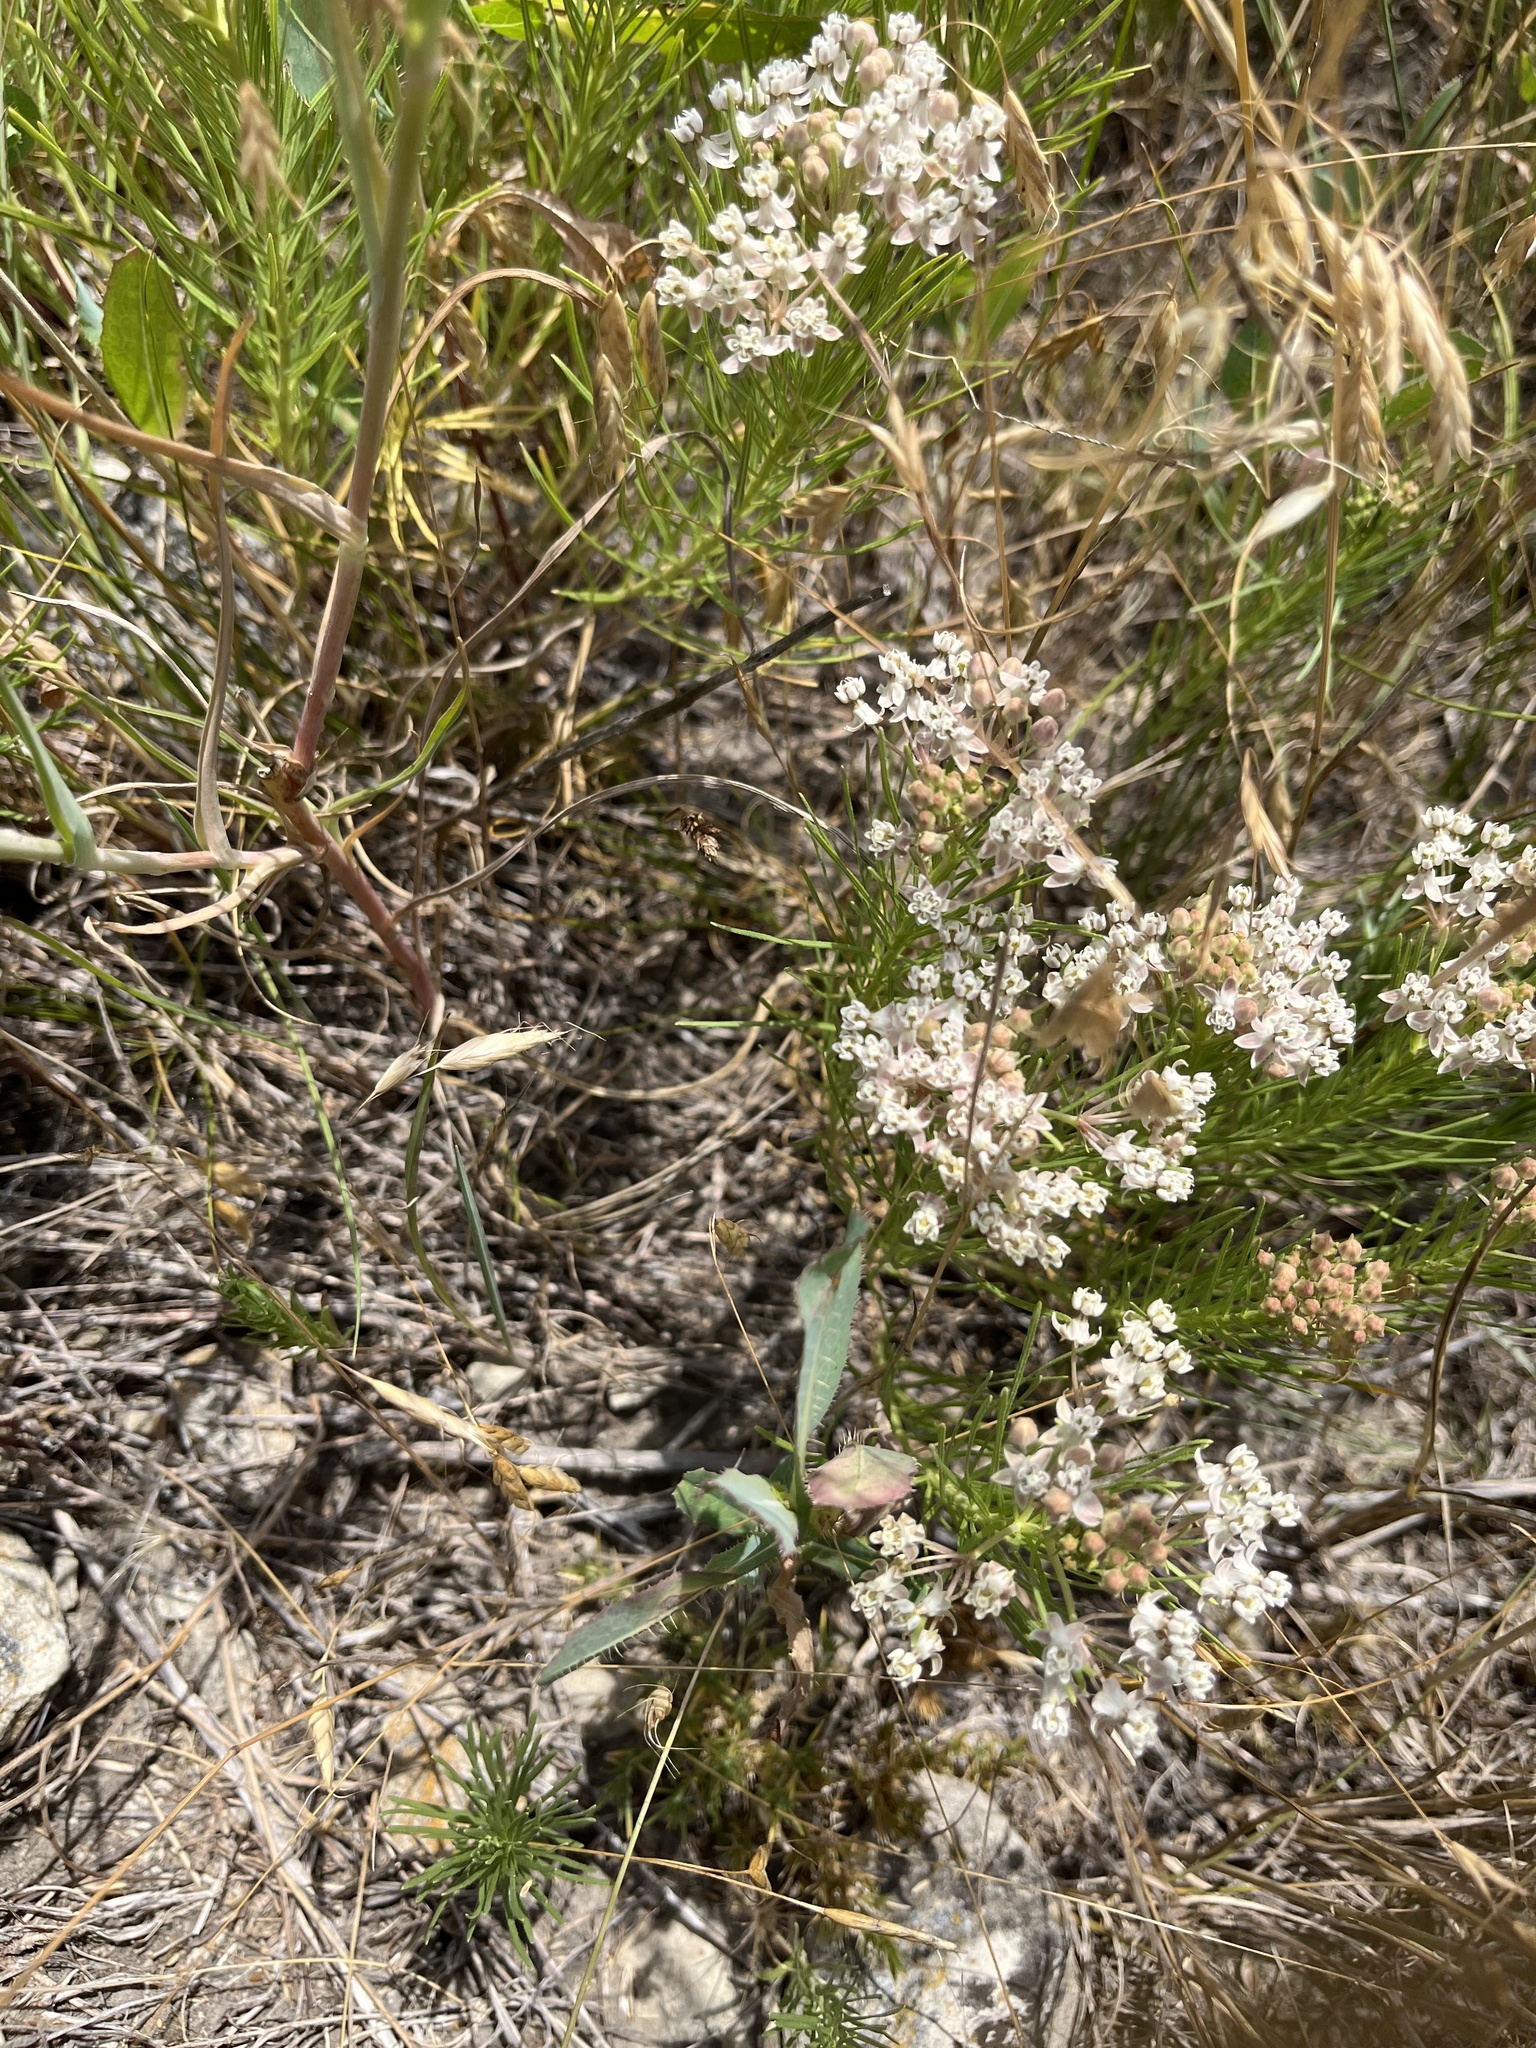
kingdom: Plantae
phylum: Tracheophyta
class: Magnoliopsida
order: Gentianales
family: Apocynaceae
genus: Asclepias
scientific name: Asclepias pumila
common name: Dwarf milkweed
